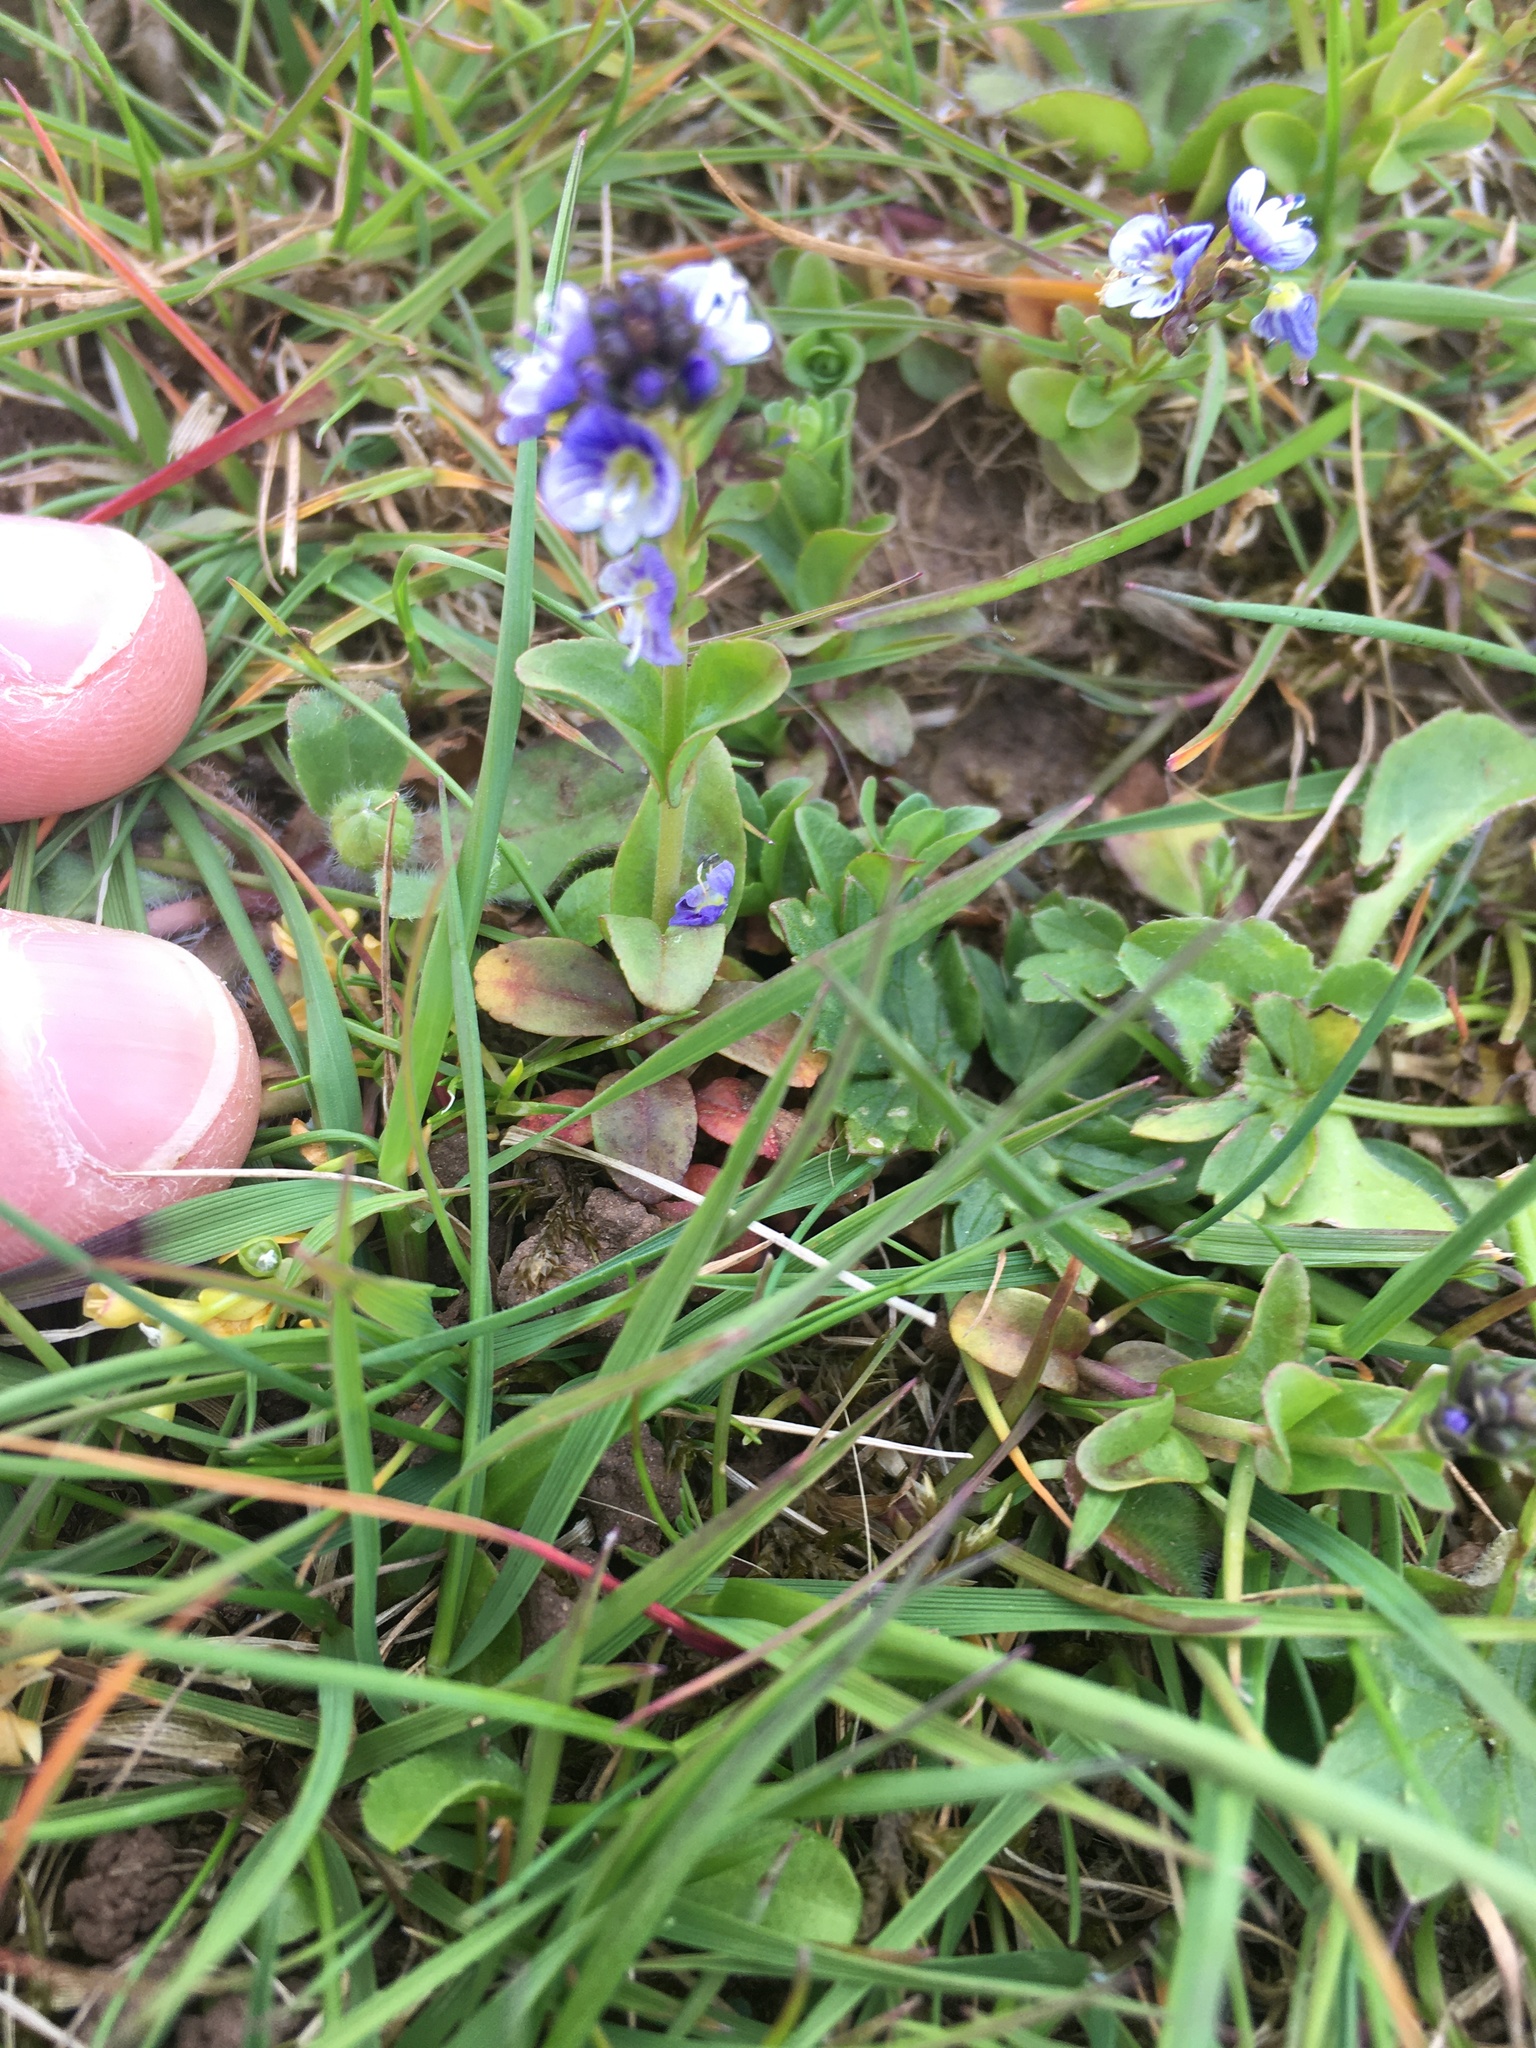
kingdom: Plantae
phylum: Tracheophyta
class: Magnoliopsida
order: Lamiales
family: Plantaginaceae
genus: Veronica
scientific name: Veronica serpyllifolia
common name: Thyme-leaved speedwell
